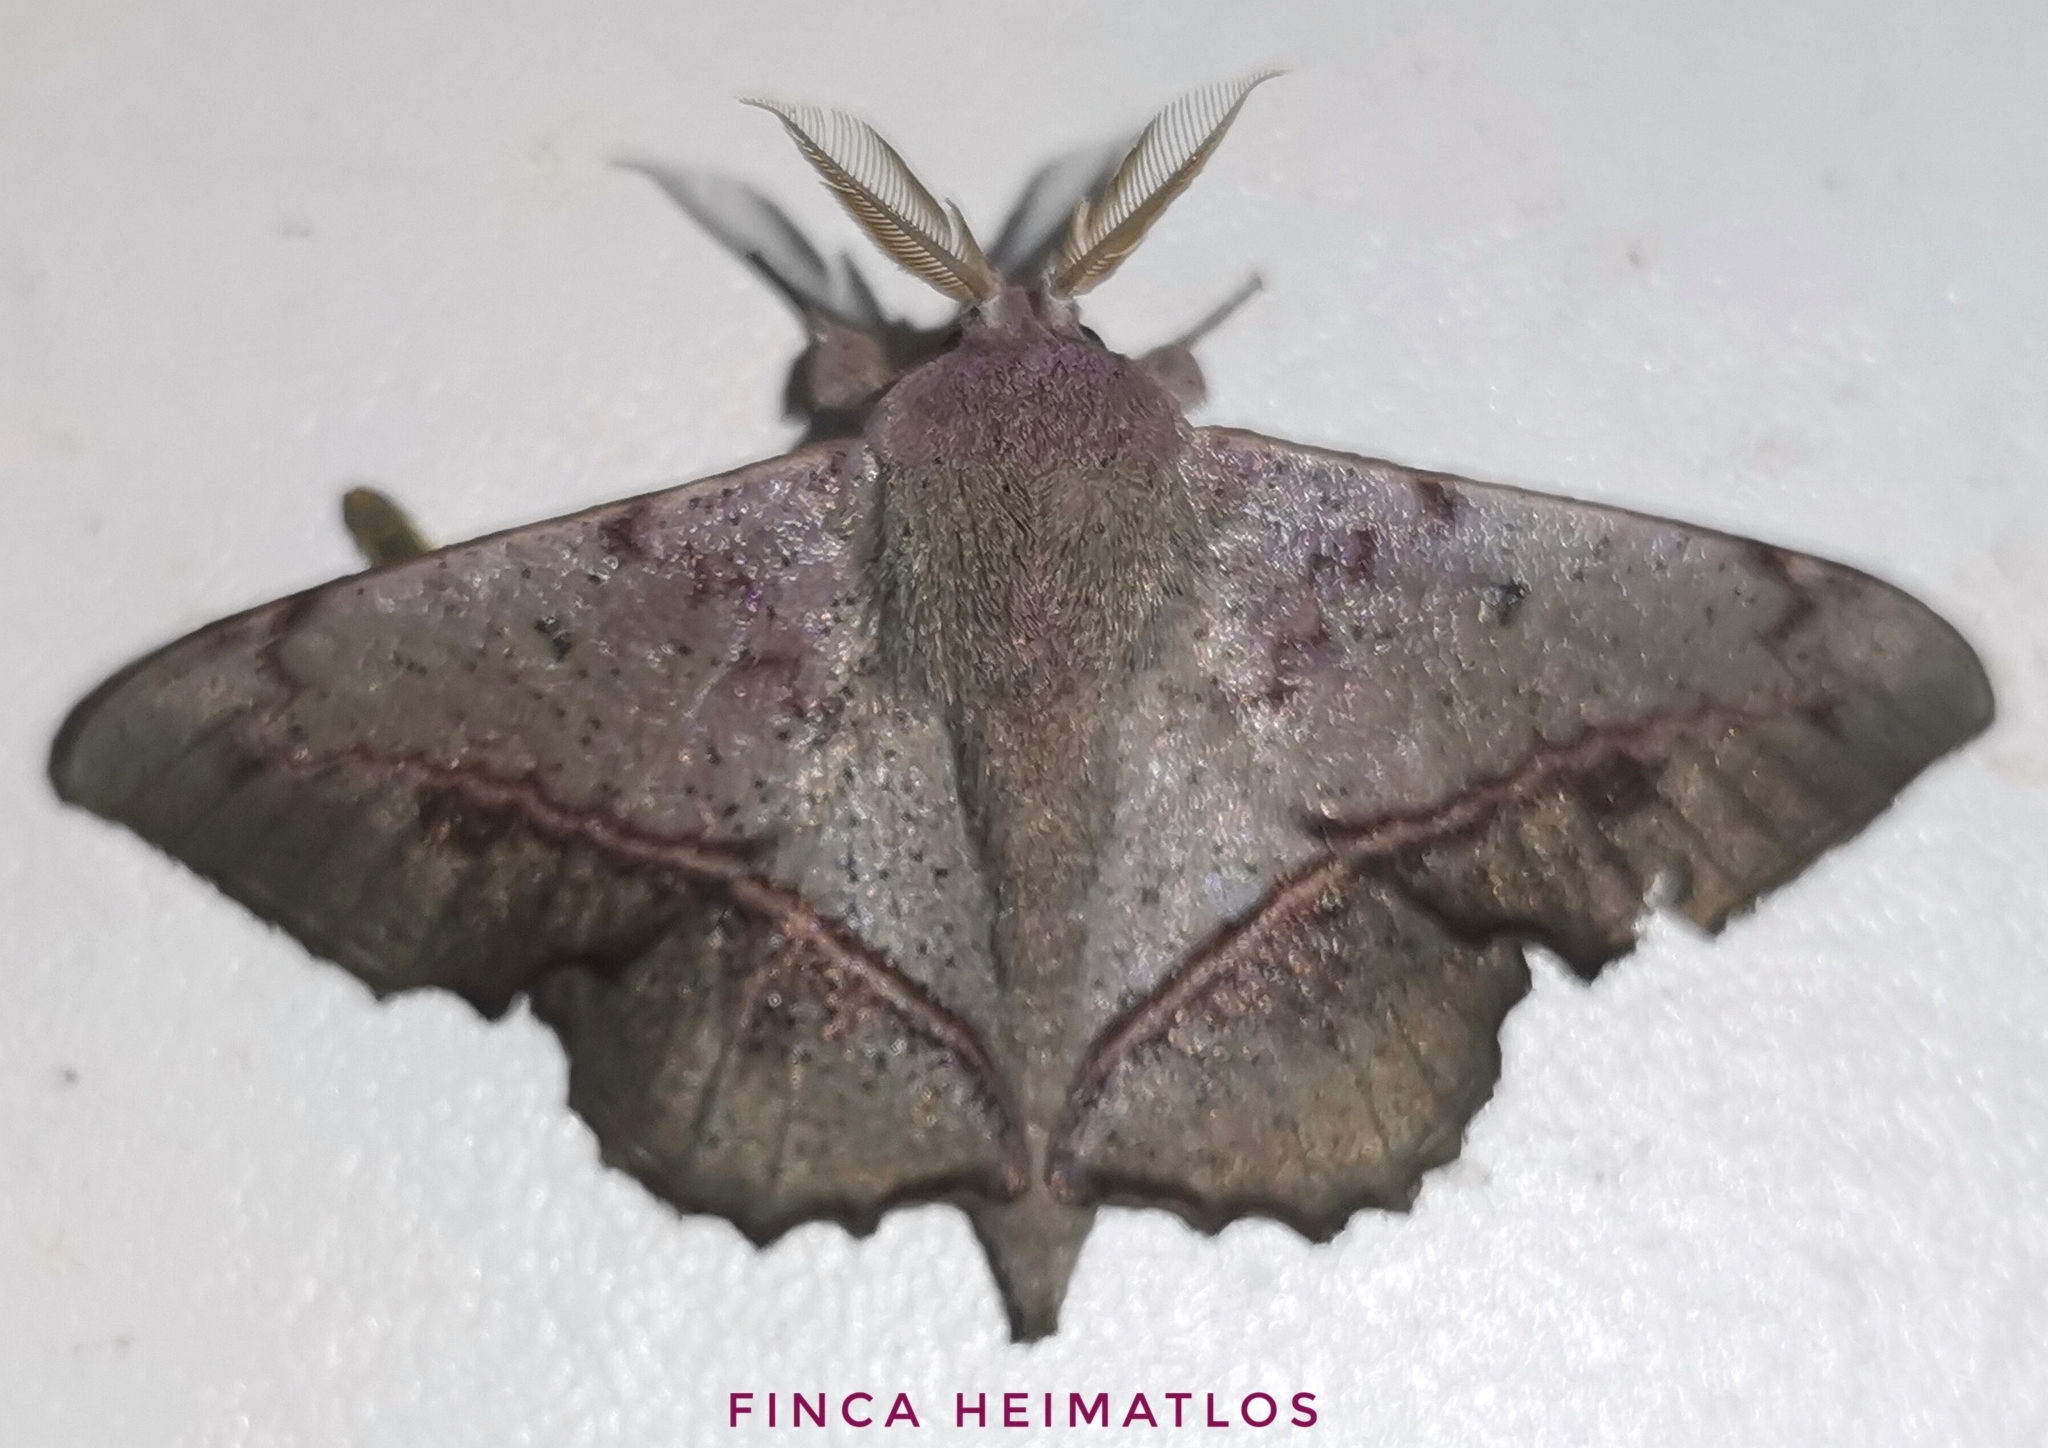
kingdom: Animalia
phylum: Arthropoda
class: Insecta
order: Lepidoptera
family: Mimallonidae
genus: Druentica
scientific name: Druentica muta
